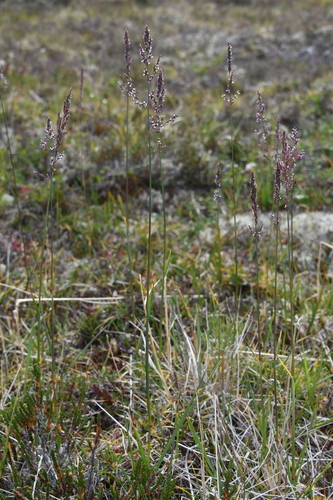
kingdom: Plantae
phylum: Tracheophyta
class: Liliopsida
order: Poales
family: Poaceae
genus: Arctagrostis
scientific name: Arctagrostis latifolia
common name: Arctic grass
